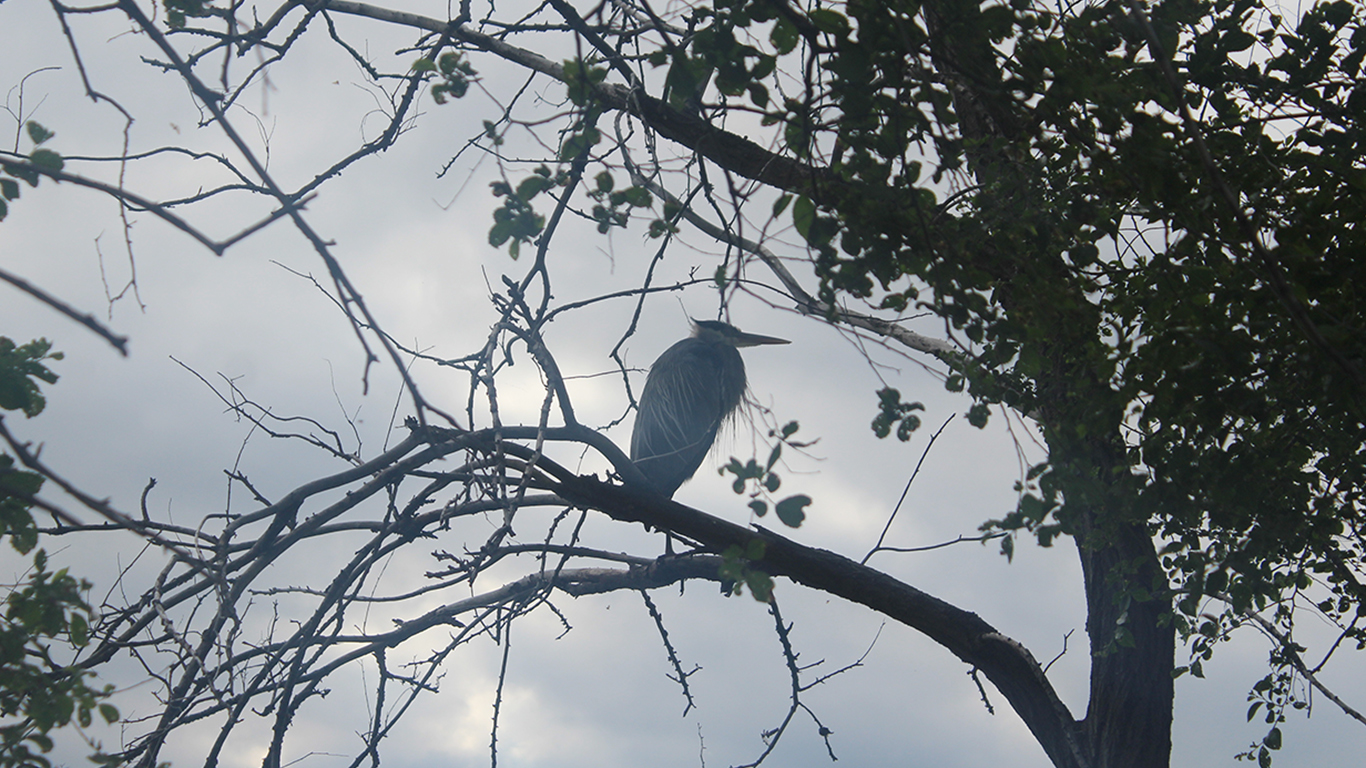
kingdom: Animalia
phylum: Chordata
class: Aves
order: Pelecaniformes
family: Ardeidae
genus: Ardea
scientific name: Ardea herodias
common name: Great blue heron
